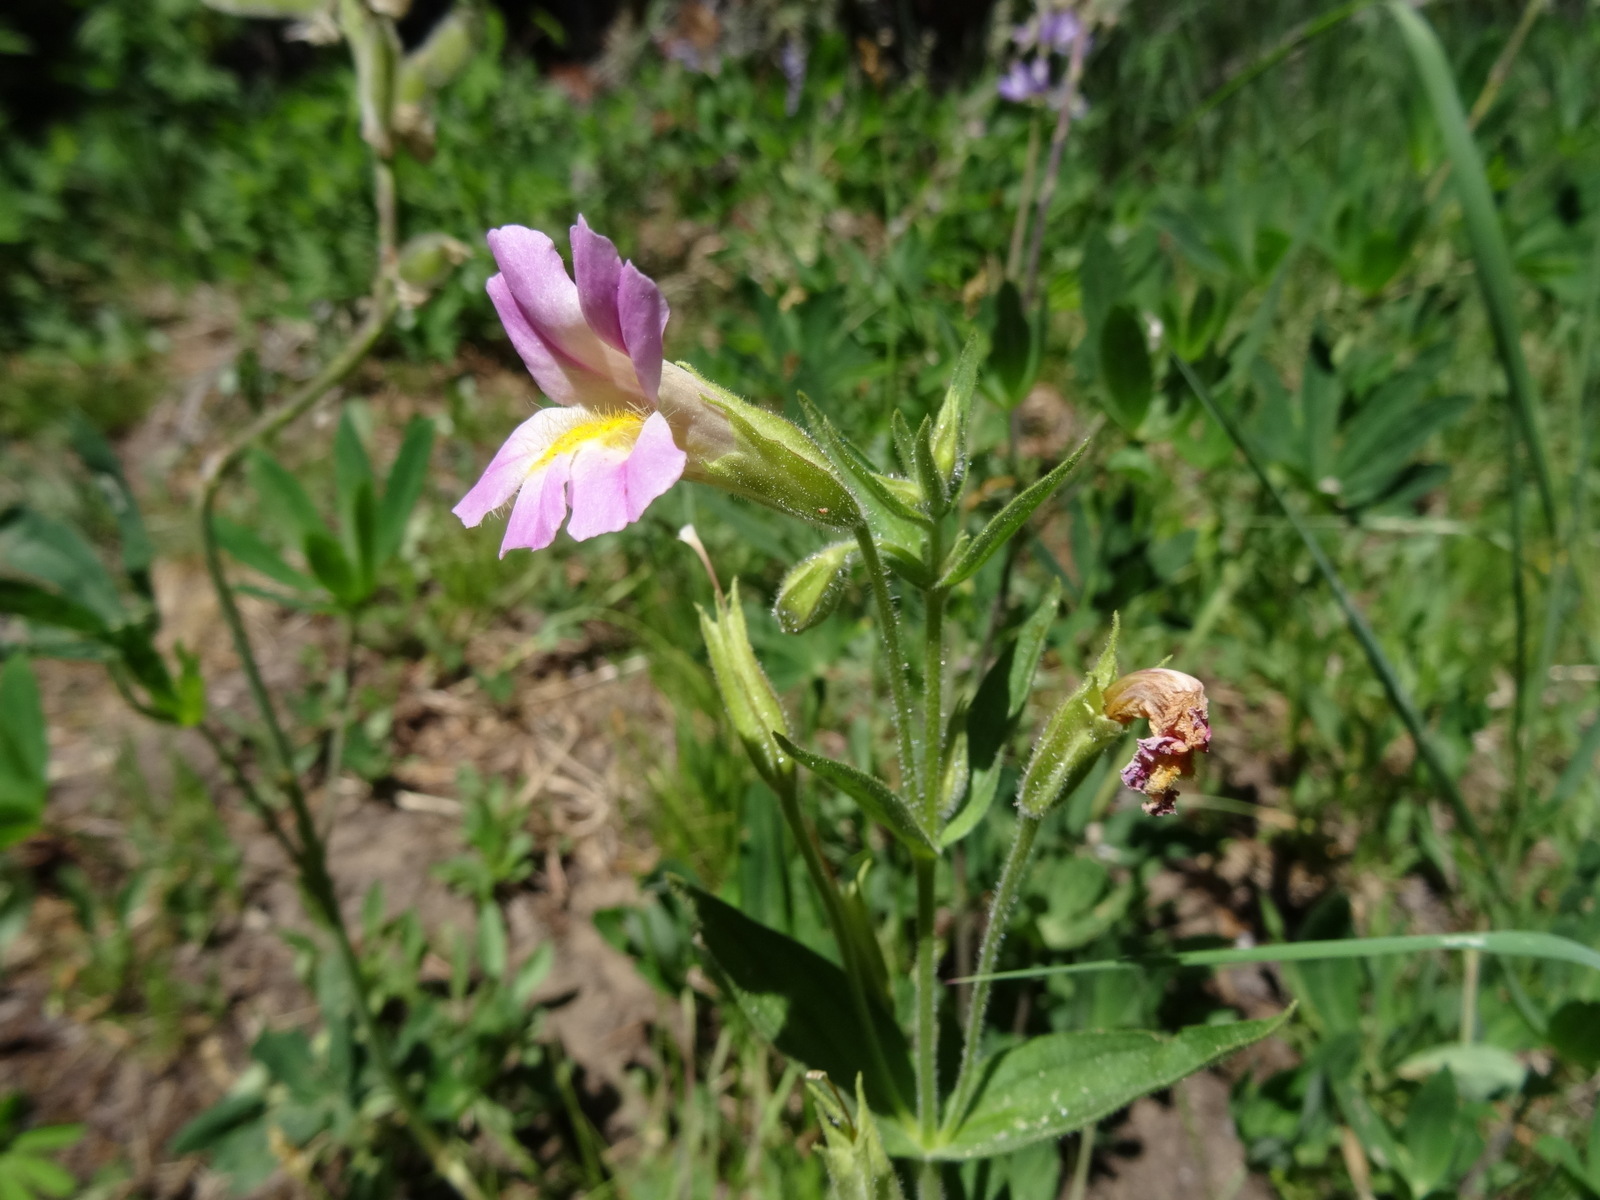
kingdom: Plantae
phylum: Tracheophyta
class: Magnoliopsida
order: Lamiales
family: Phrymaceae
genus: Erythranthe
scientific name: Erythranthe erubescens
